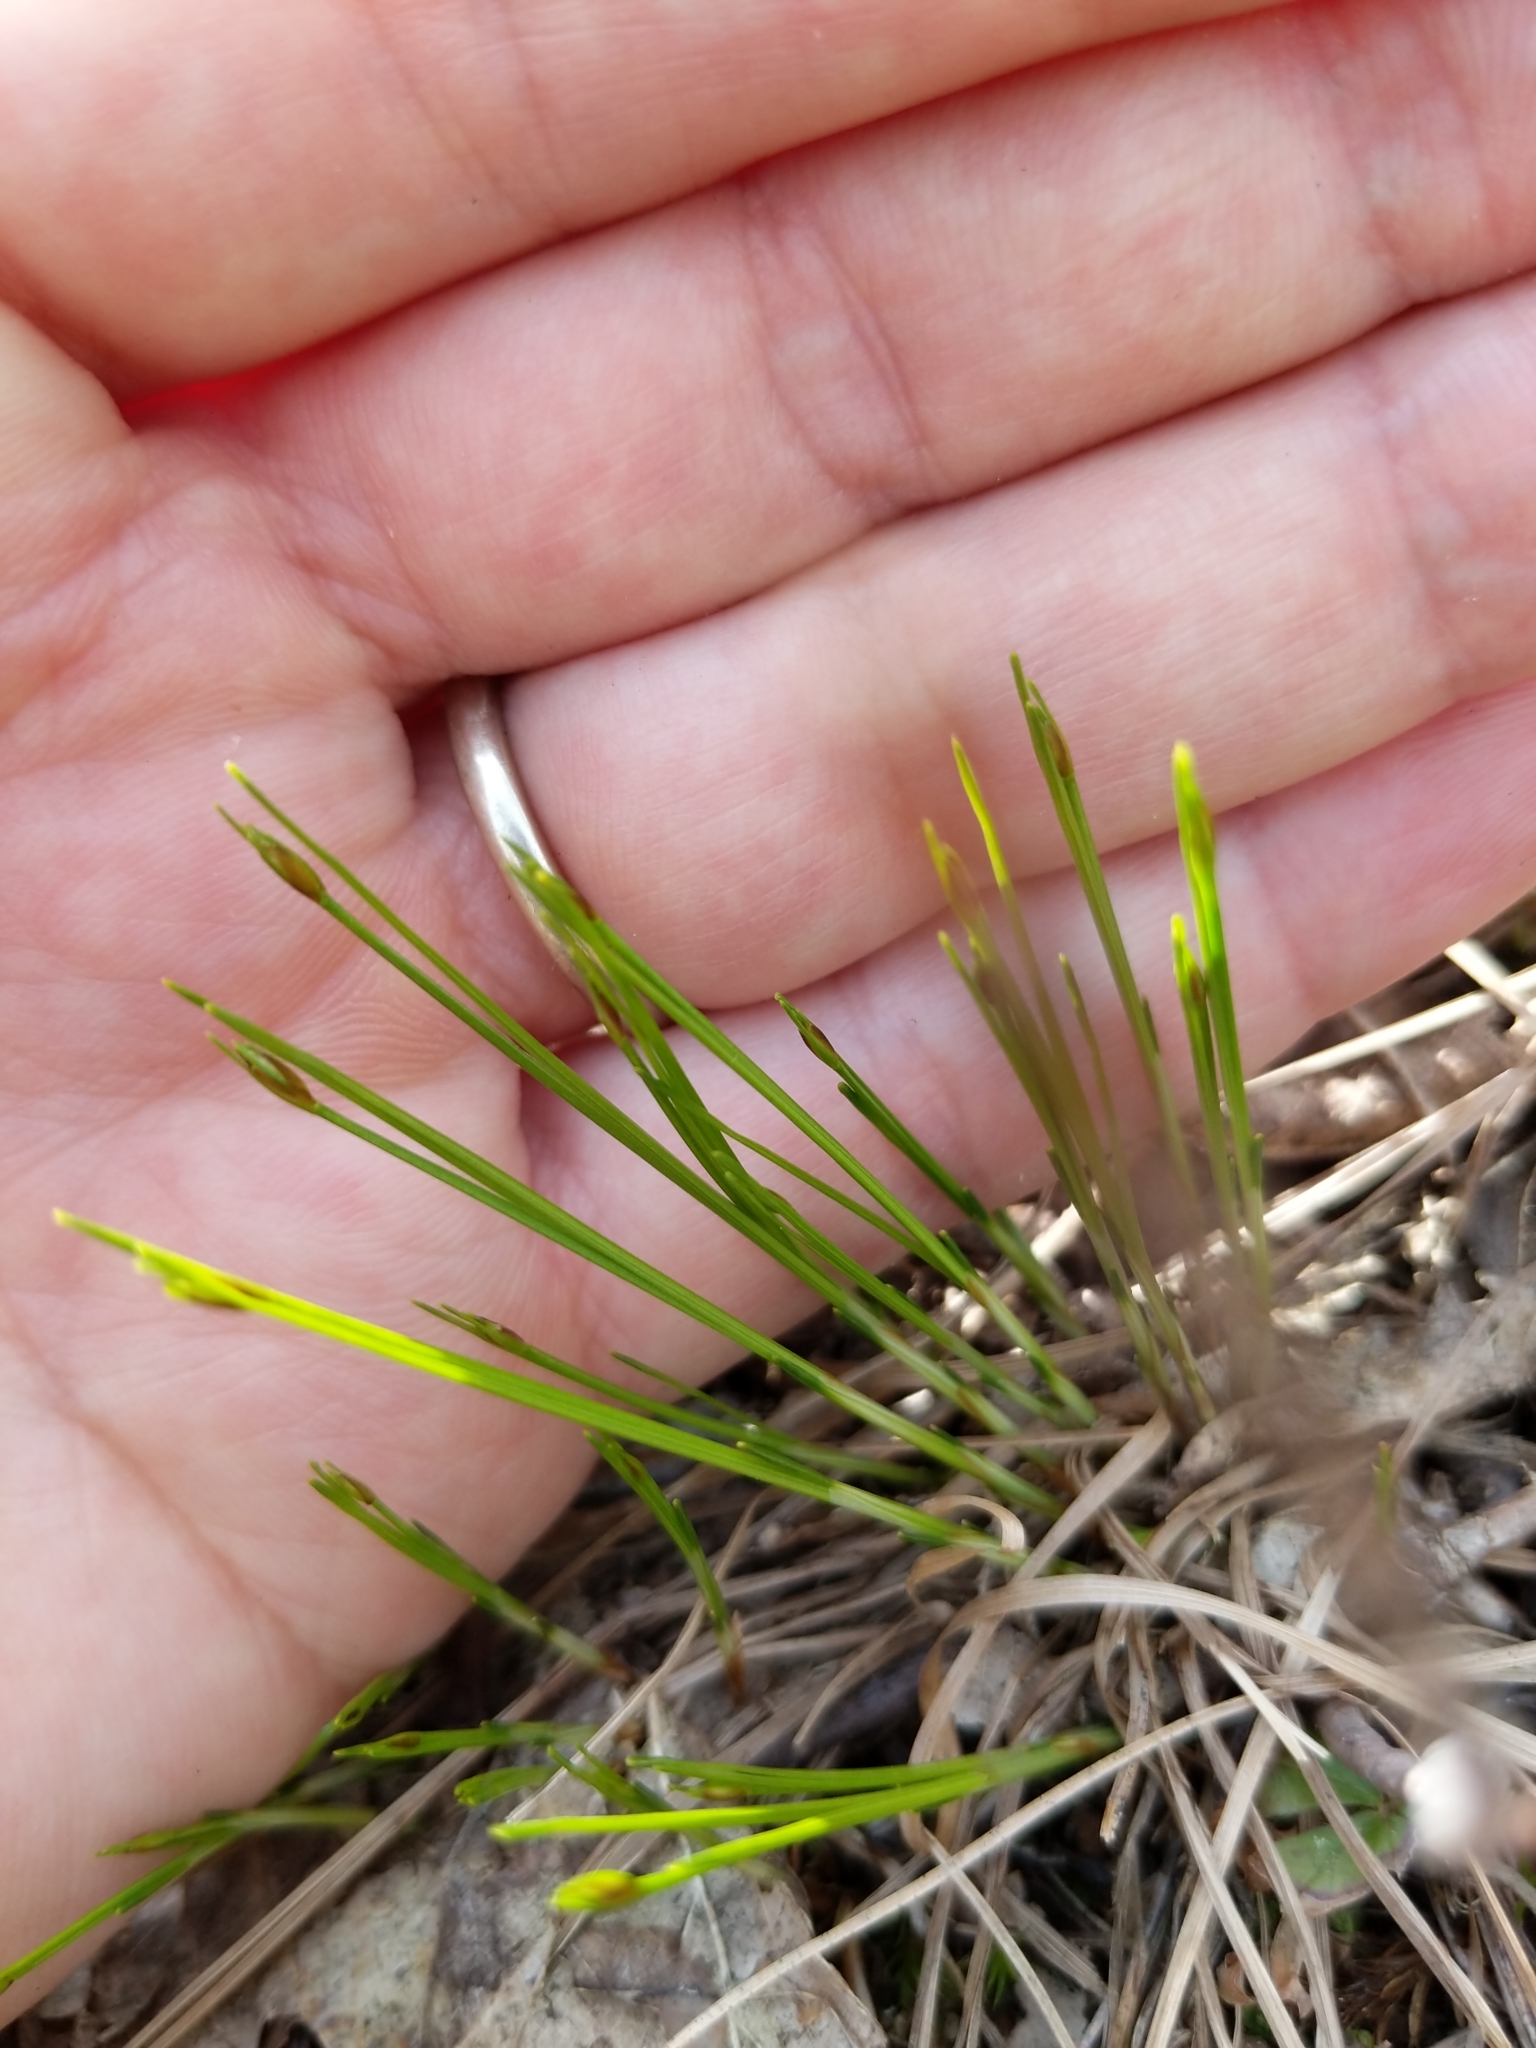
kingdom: Plantae
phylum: Tracheophyta
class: Liliopsida
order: Poales
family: Cyperaceae
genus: Trichophorum
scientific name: Trichophorum planifolium
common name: Bashful bulrush
